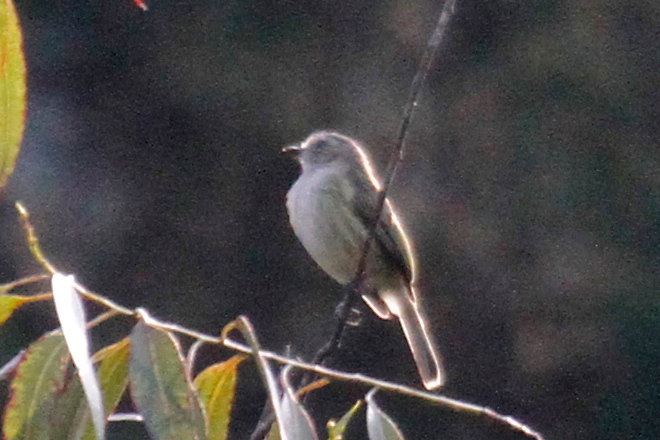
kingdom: Animalia
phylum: Chordata
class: Aves
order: Passeriformes
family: Tyrannidae
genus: Zimmerius
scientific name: Zimmerius vilissimus
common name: Paltry tyrannulet
